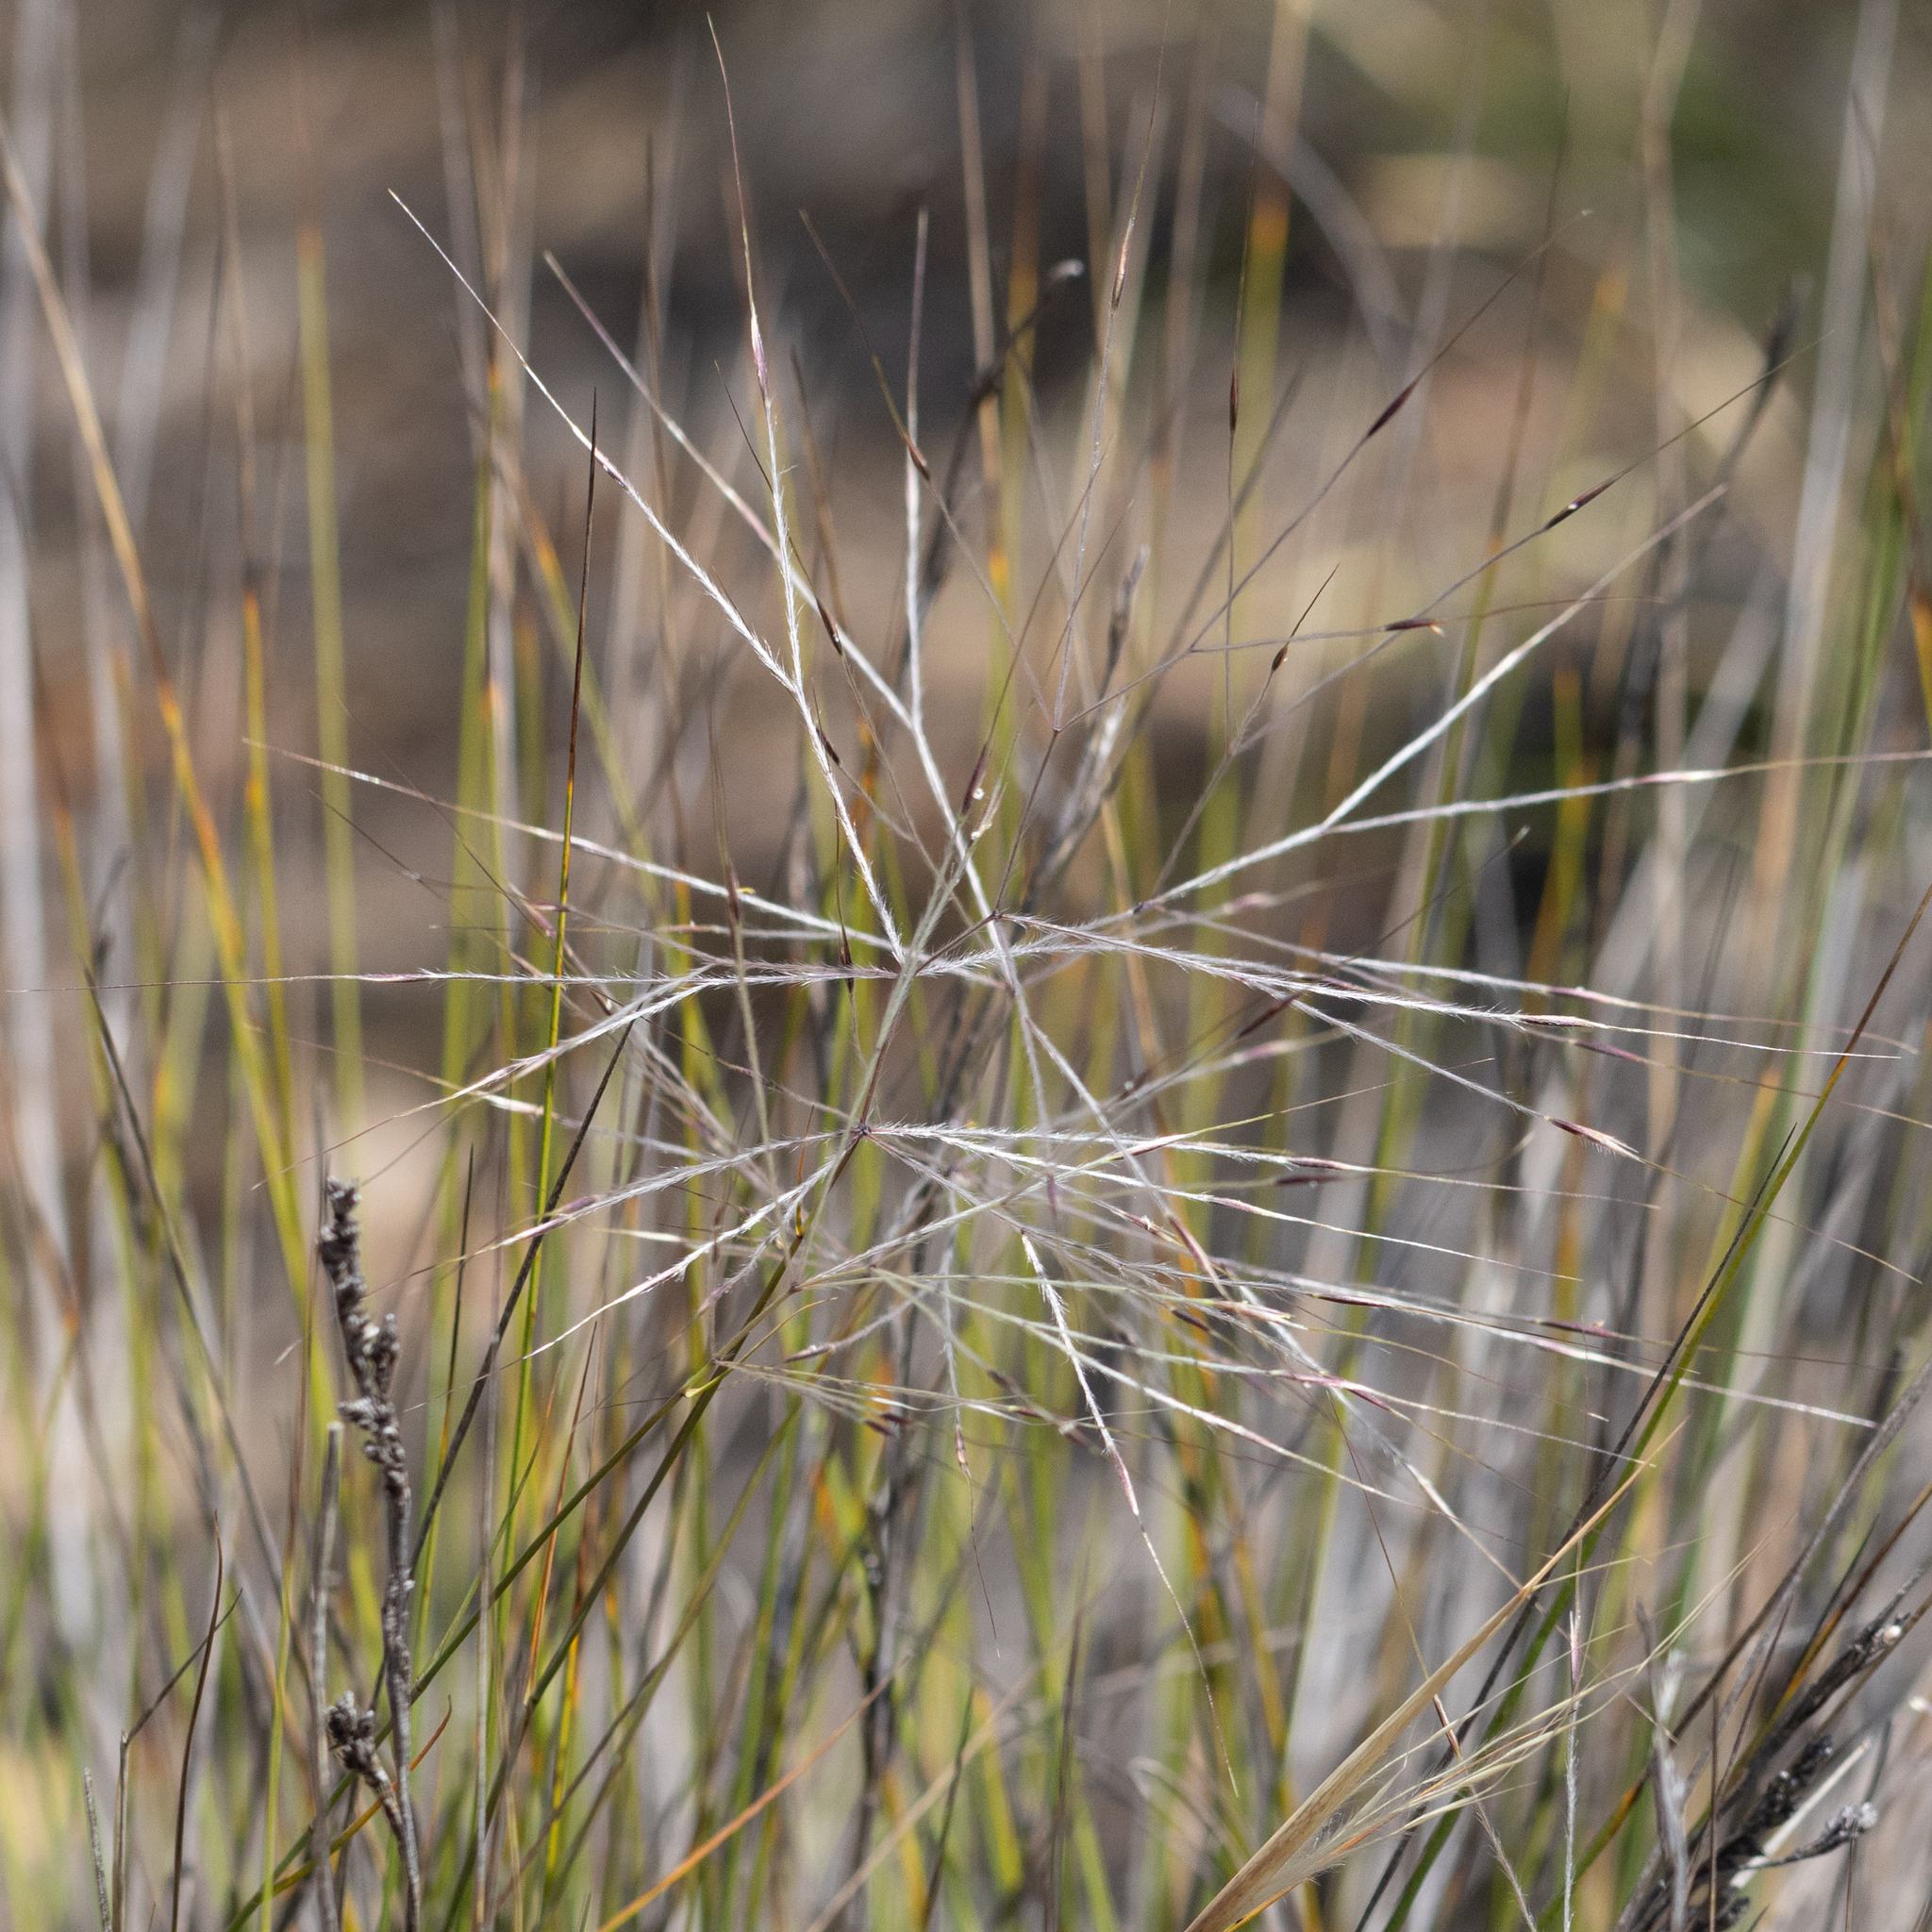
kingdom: Plantae
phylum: Tracheophyta
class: Liliopsida
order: Poales
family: Poaceae
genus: Austrostipa
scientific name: Austrostipa elegantissima
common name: Feather spear grass
